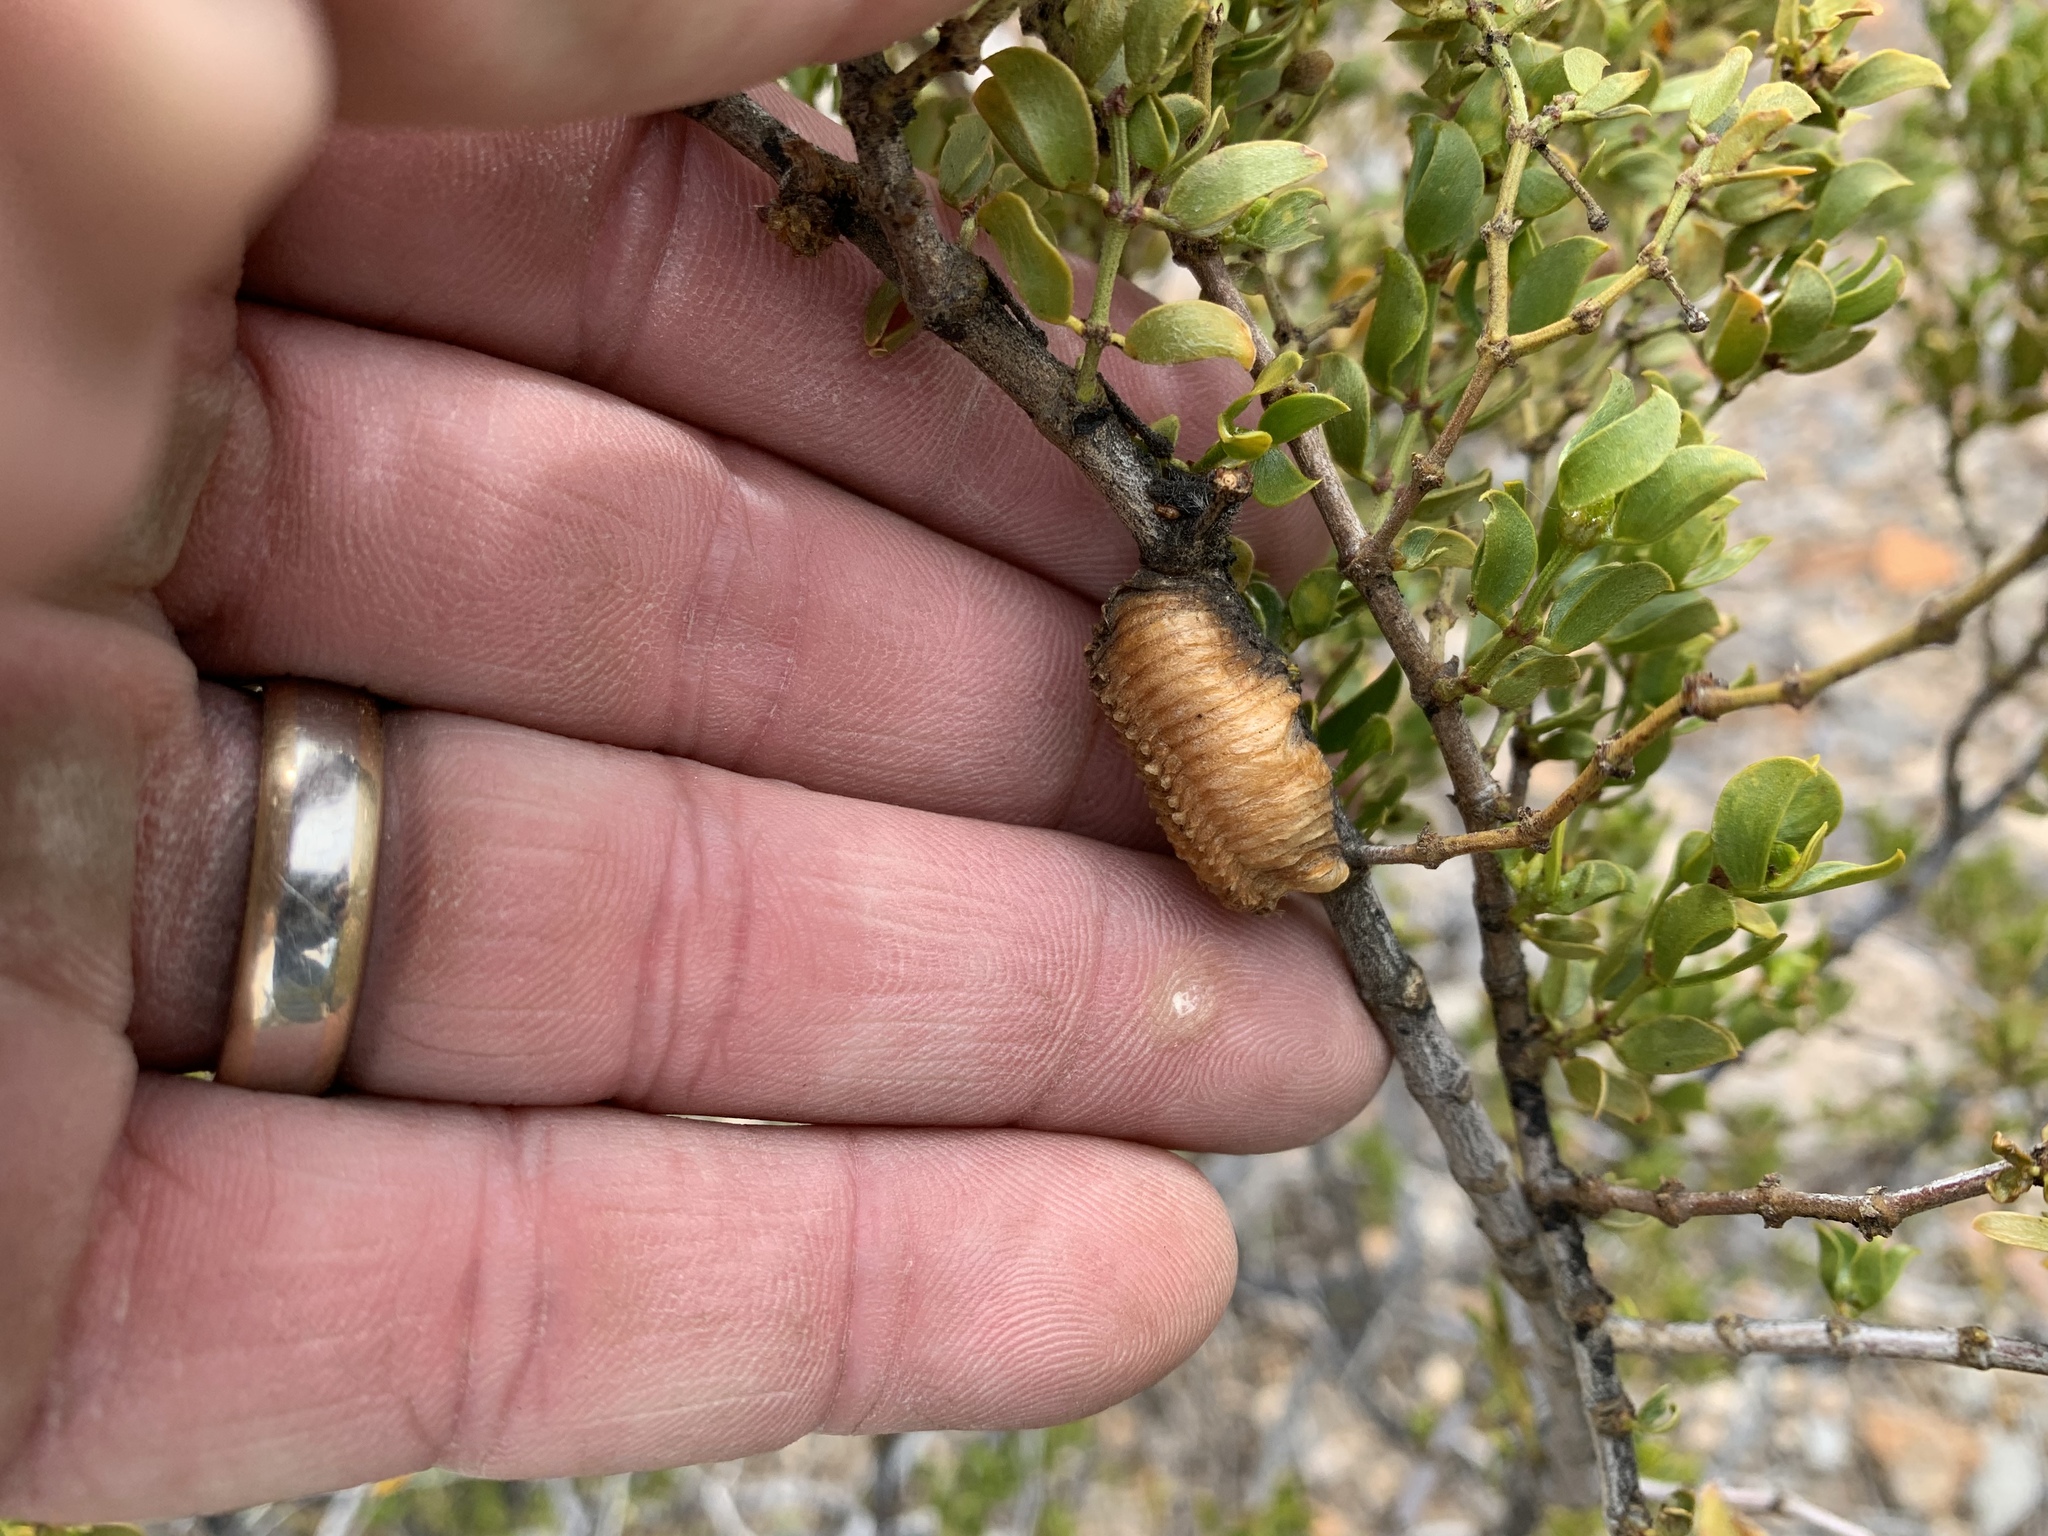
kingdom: Animalia
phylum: Arthropoda
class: Insecta
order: Mantodea
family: Mantidae
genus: Stagmomantis
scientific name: Stagmomantis californica
